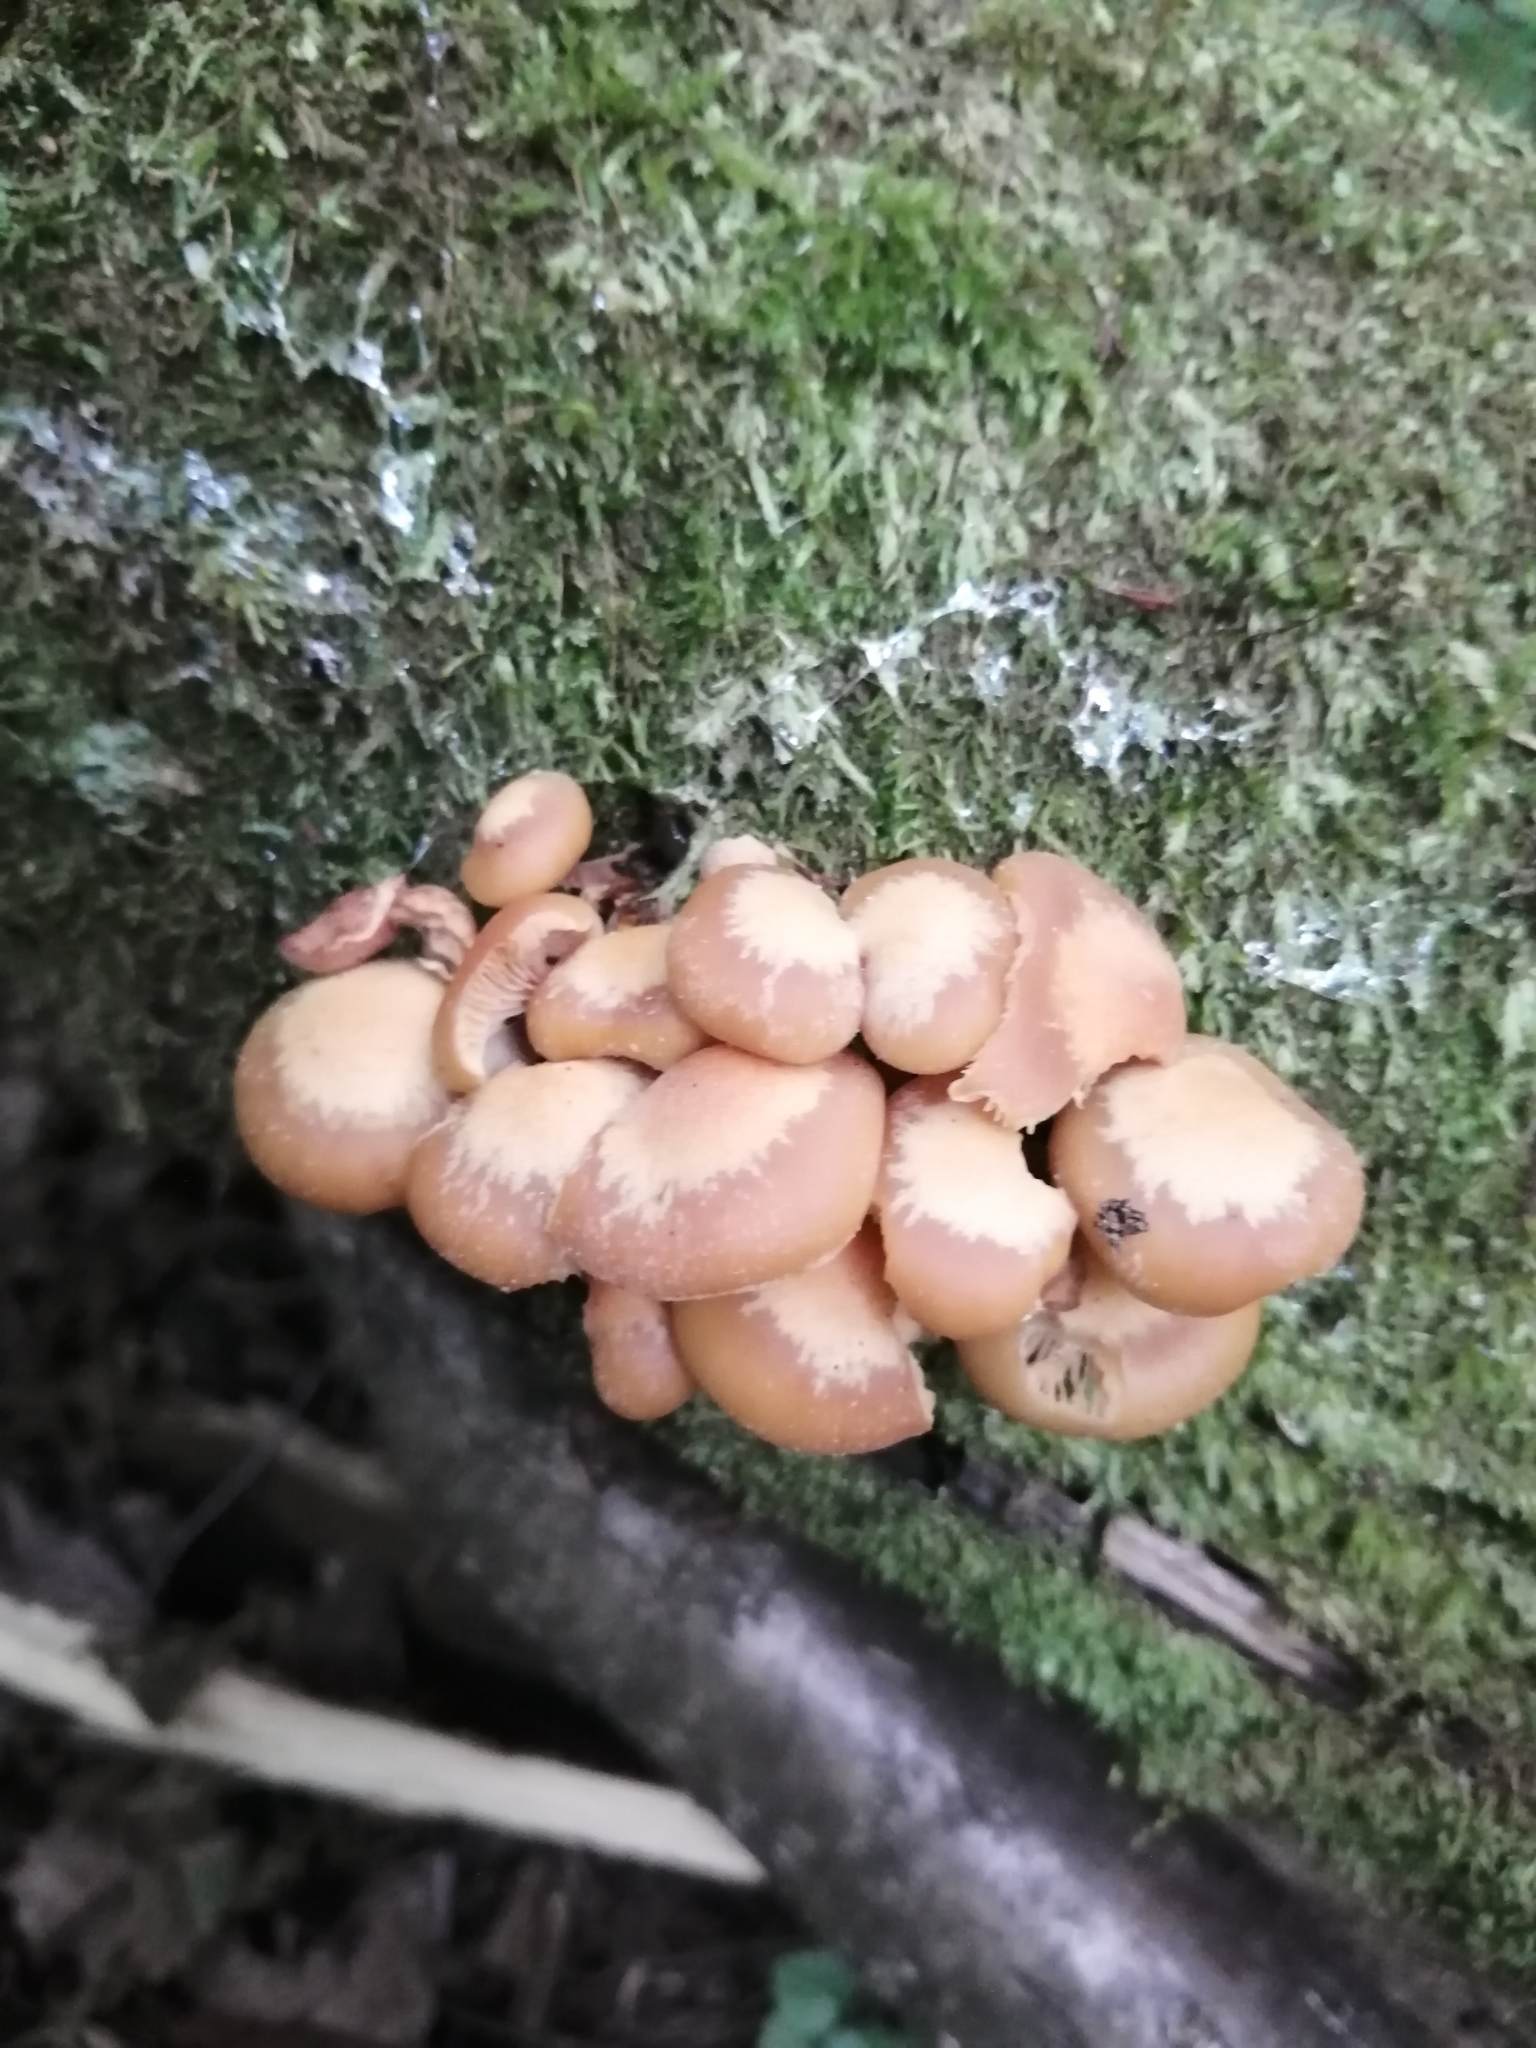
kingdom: Fungi
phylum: Basidiomycota
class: Agaricomycetes
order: Agaricales
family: Strophariaceae
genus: Kuehneromyces
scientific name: Kuehneromyces mutabilis
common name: Sheathed woodtuft
